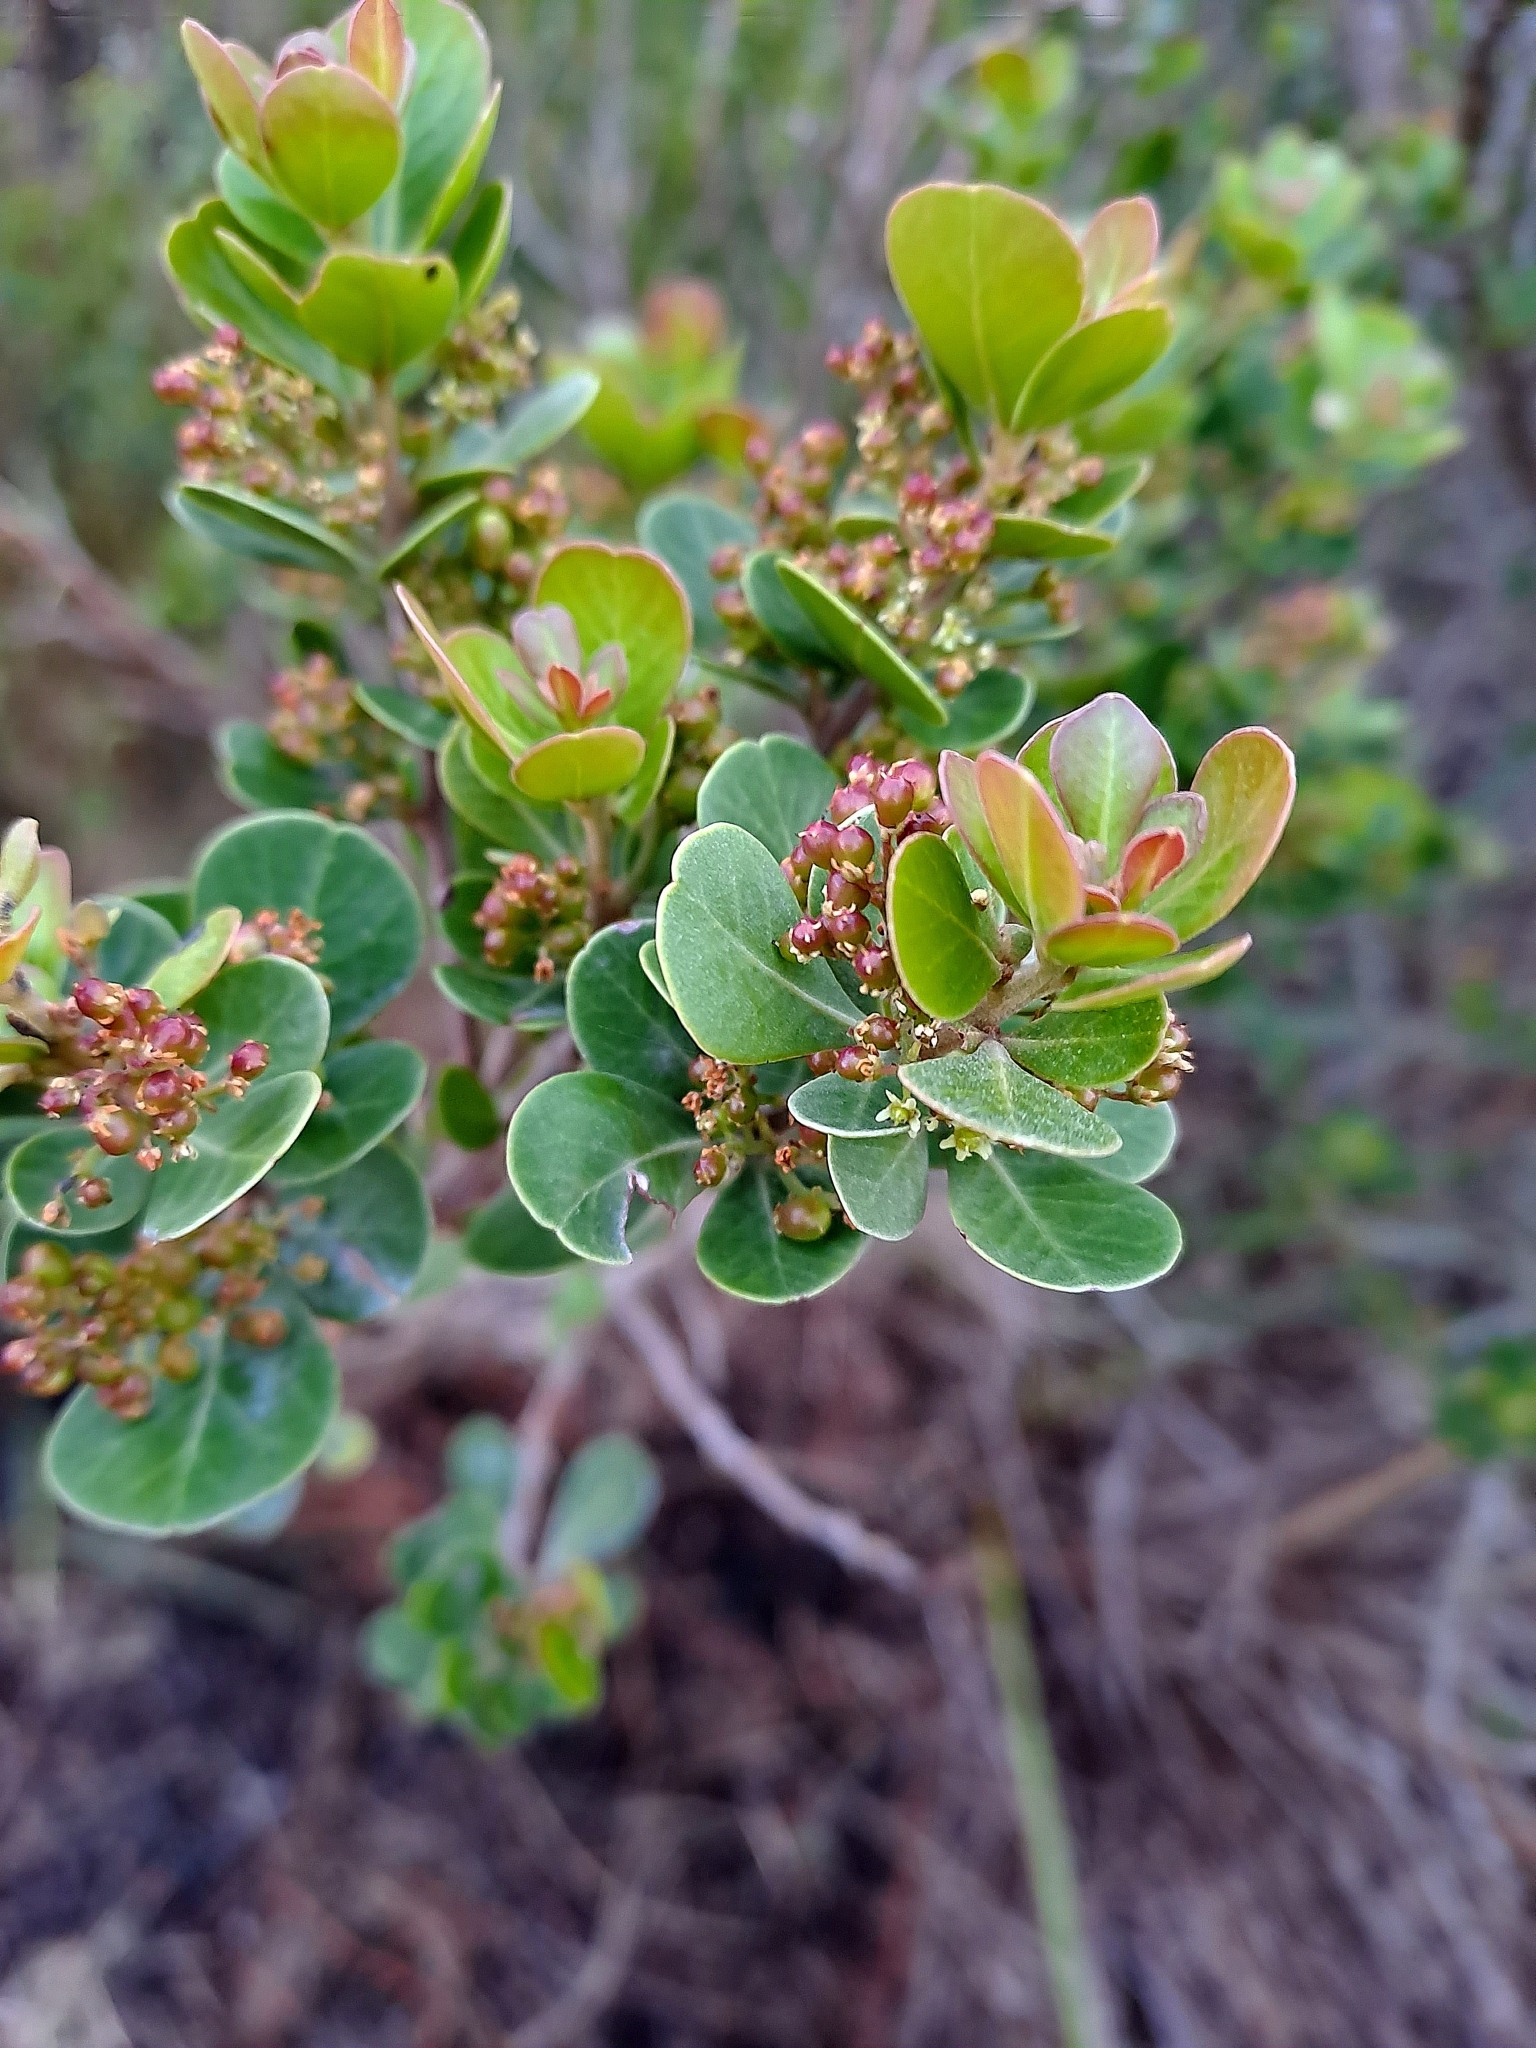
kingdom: Plantae
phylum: Tracheophyta
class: Magnoliopsida
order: Sapindales
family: Anacardiaceae
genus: Searsia
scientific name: Searsia lucida
